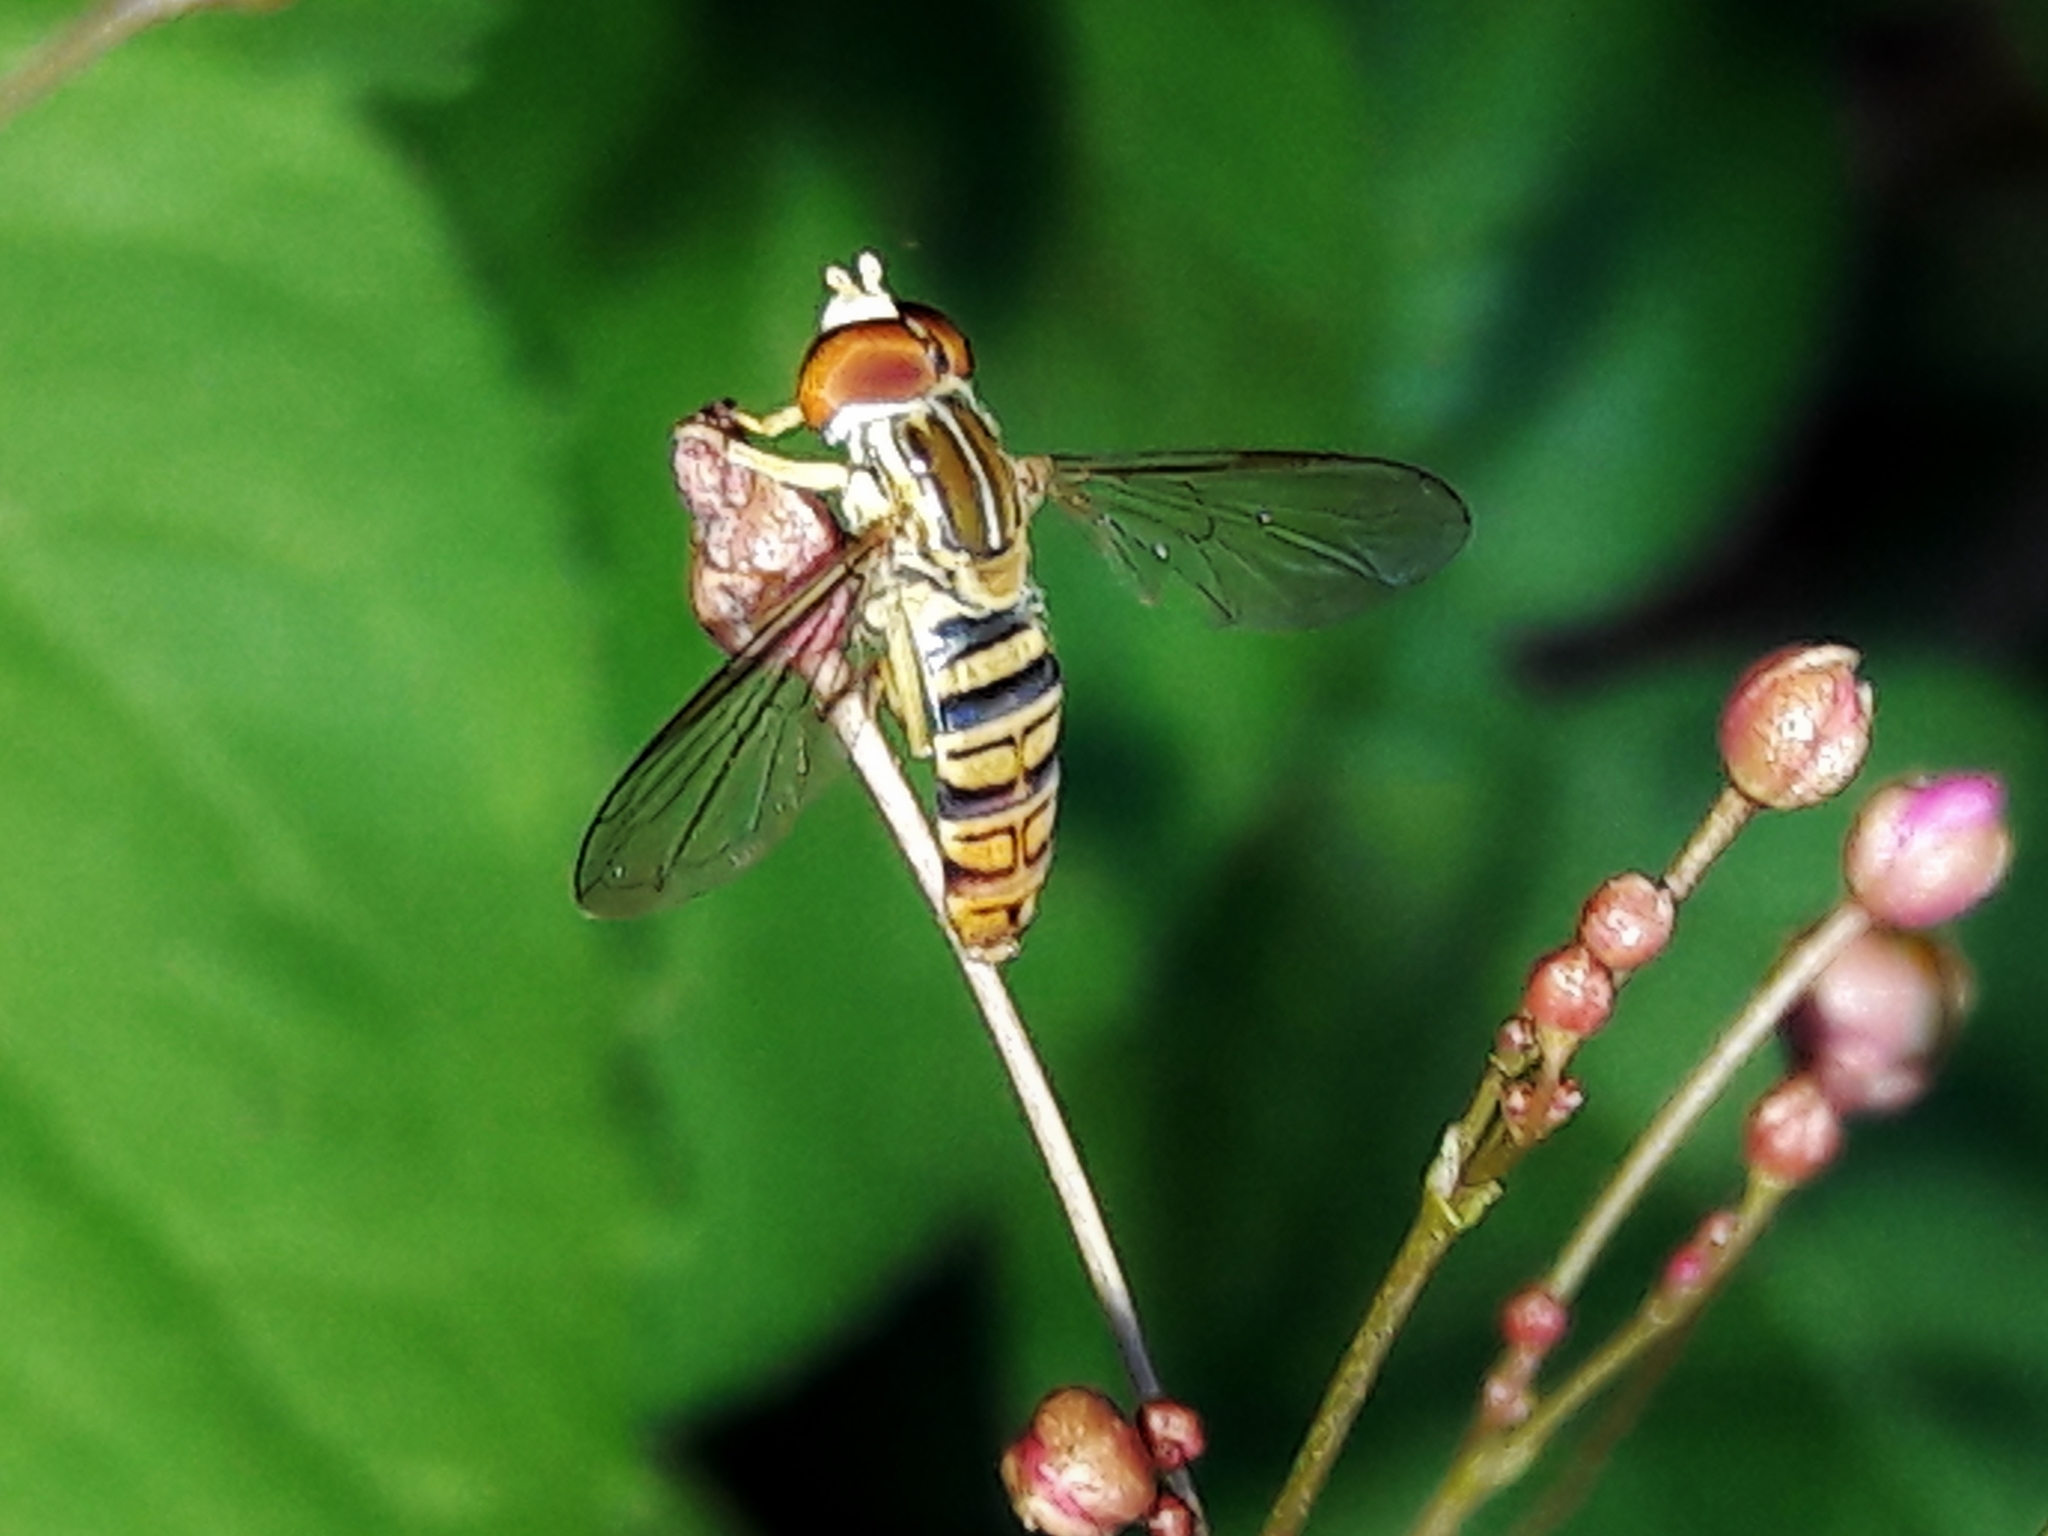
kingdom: Animalia
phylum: Arthropoda
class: Insecta
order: Diptera
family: Syrphidae
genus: Toxomerus
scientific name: Toxomerus politus
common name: Maize calligrapher
